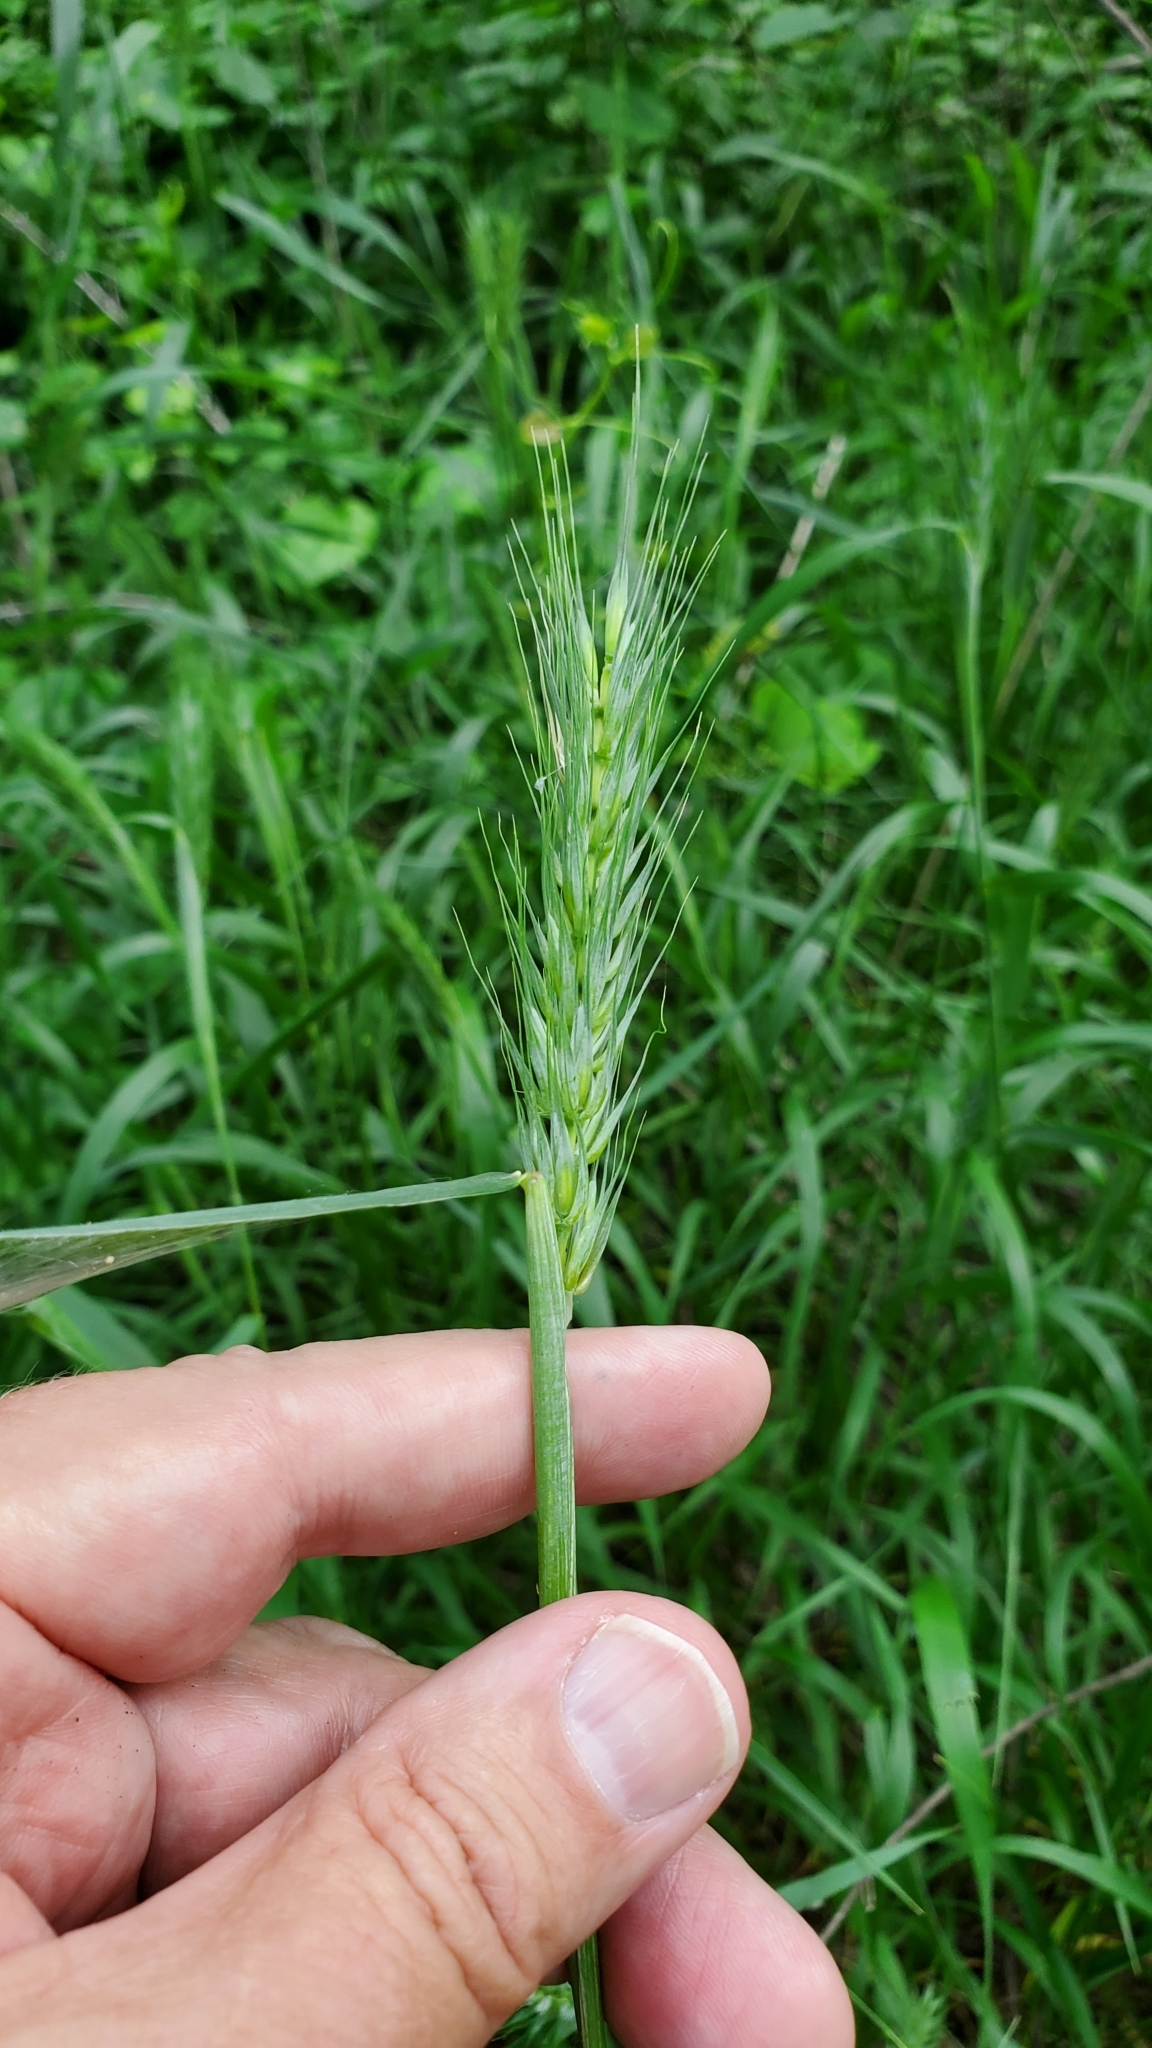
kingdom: Plantae
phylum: Tracheophyta
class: Liliopsida
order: Poales
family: Poaceae
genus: Elymus
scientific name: Elymus virginicus
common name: Common eastern wildrye
